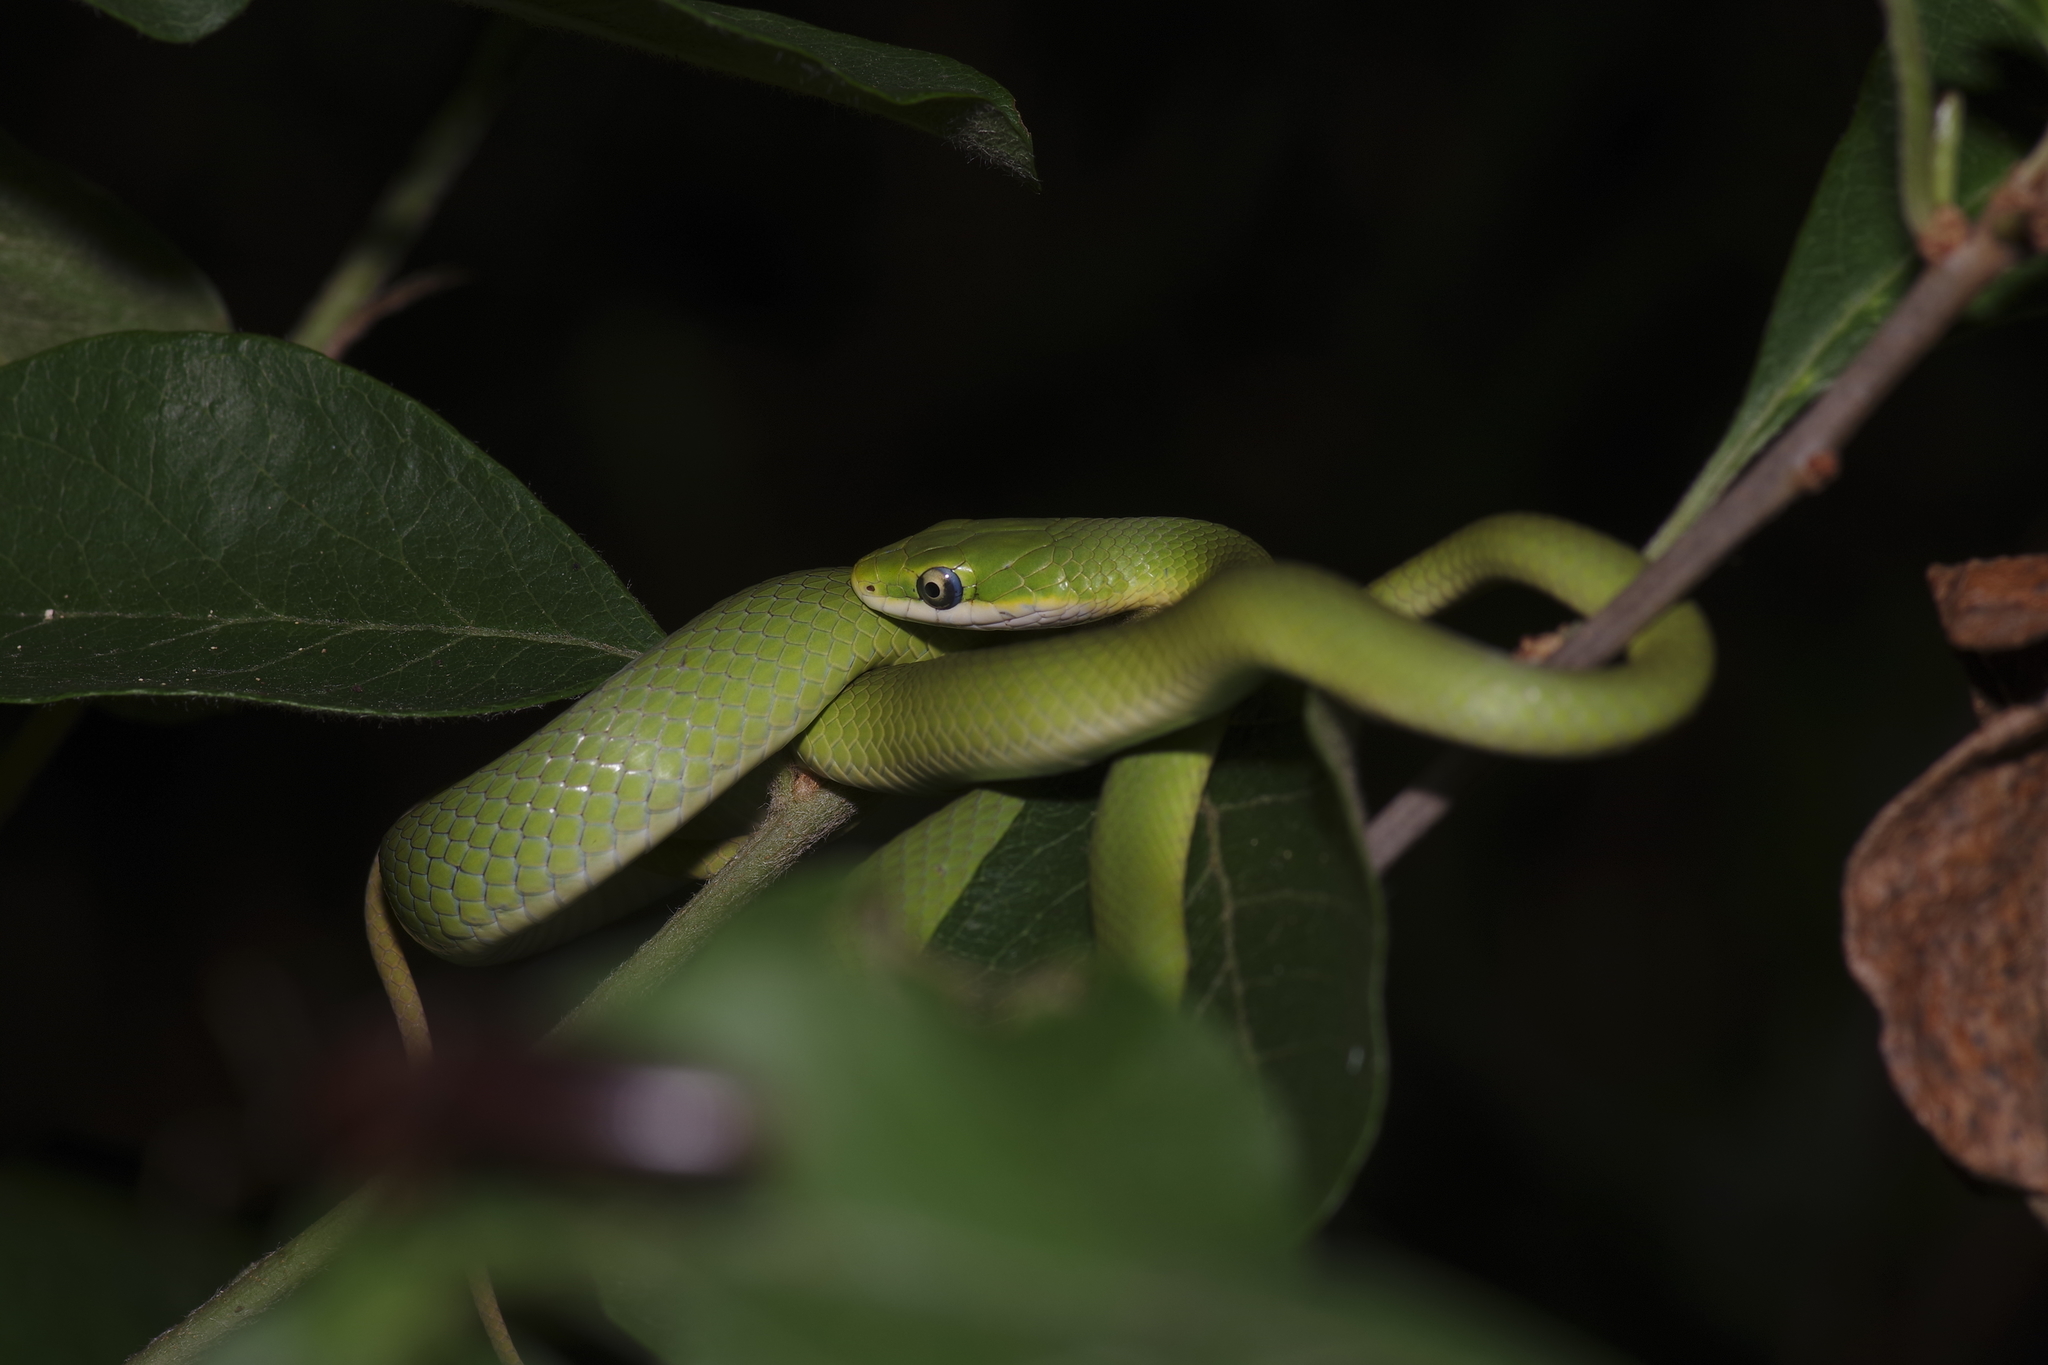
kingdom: Animalia
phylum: Chordata
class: Squamata
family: Colubridae
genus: Opheodrys
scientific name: Opheodrys aestivus
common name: Rough greensnake
